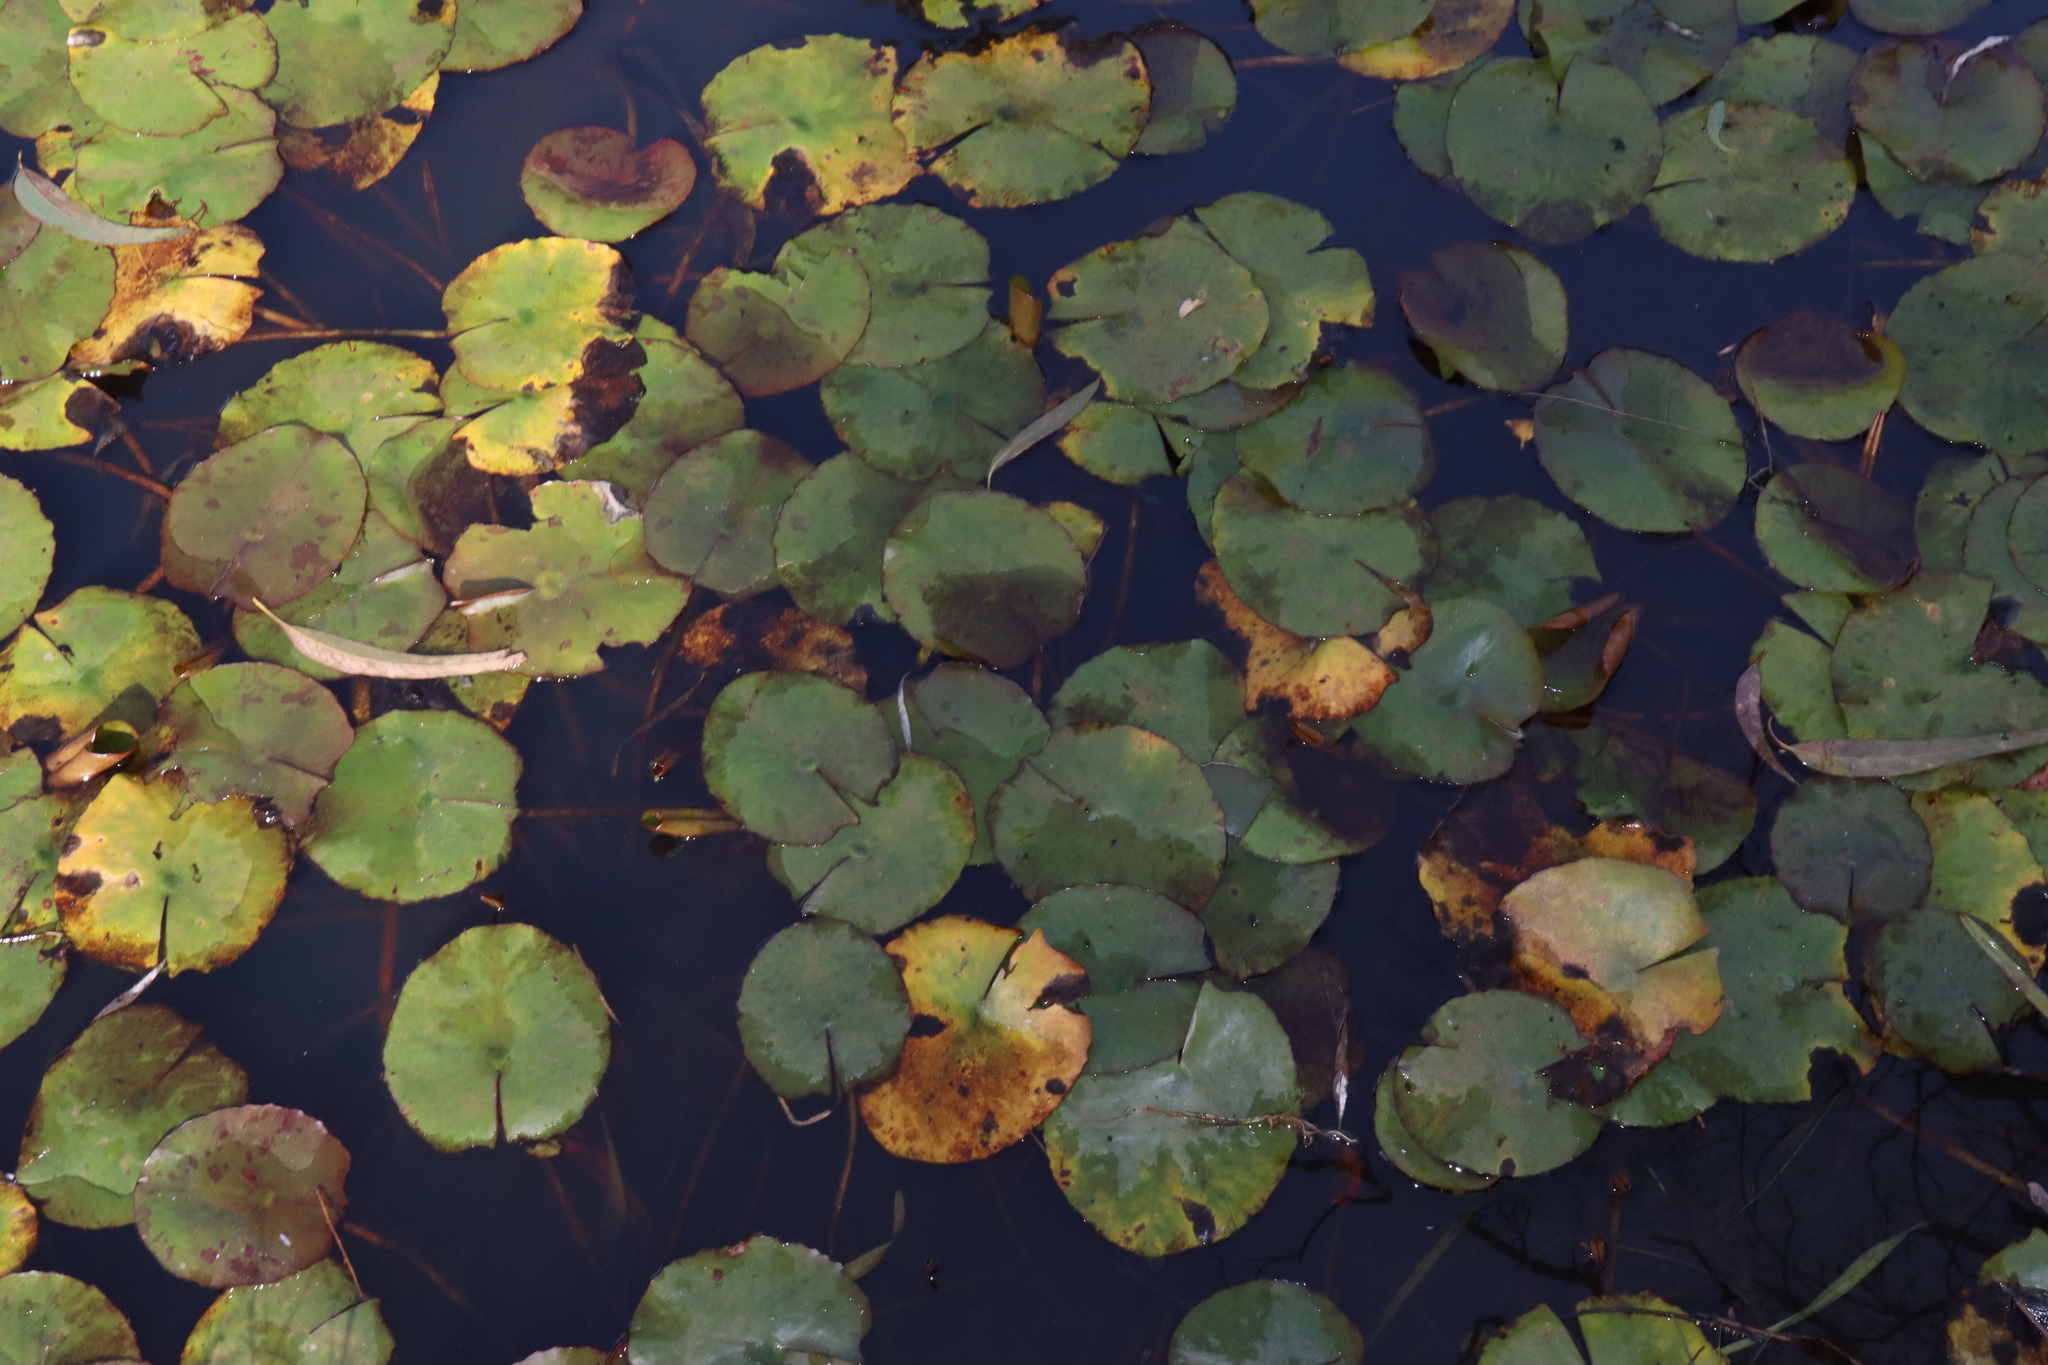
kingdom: Plantae
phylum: Tracheophyta
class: Magnoliopsida
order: Nymphaeales
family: Nymphaeaceae
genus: Nymphaea
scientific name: Nymphaea mexicana
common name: Banana water-lily
